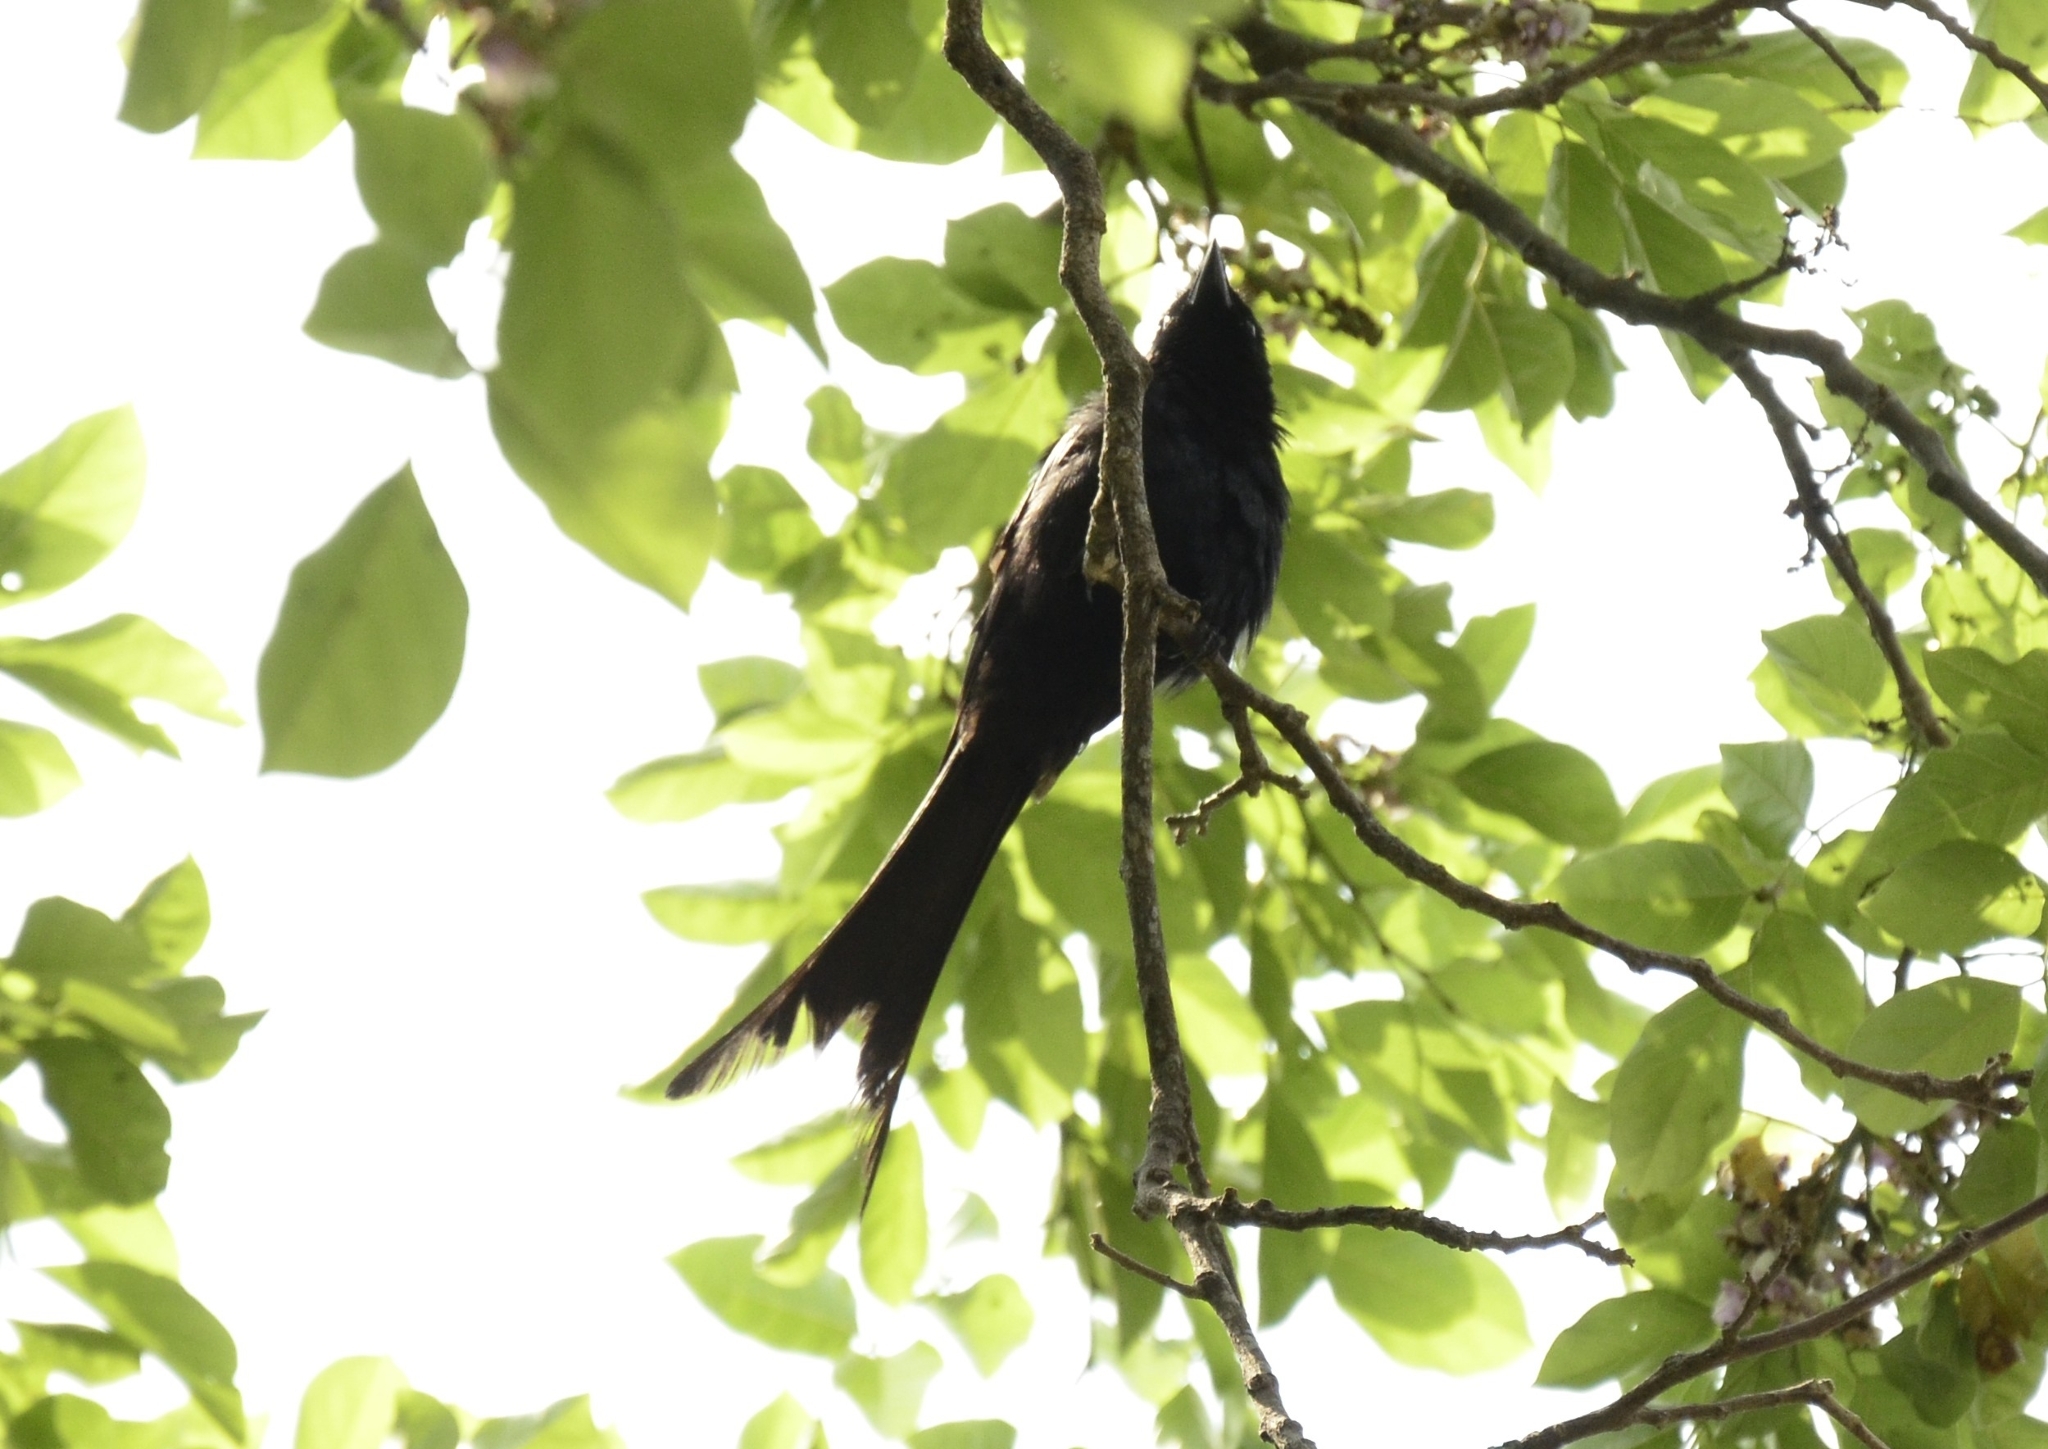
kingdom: Animalia
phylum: Chordata
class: Aves
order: Passeriformes
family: Dicruridae
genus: Dicrurus
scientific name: Dicrurus macrocercus
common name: Black drongo
